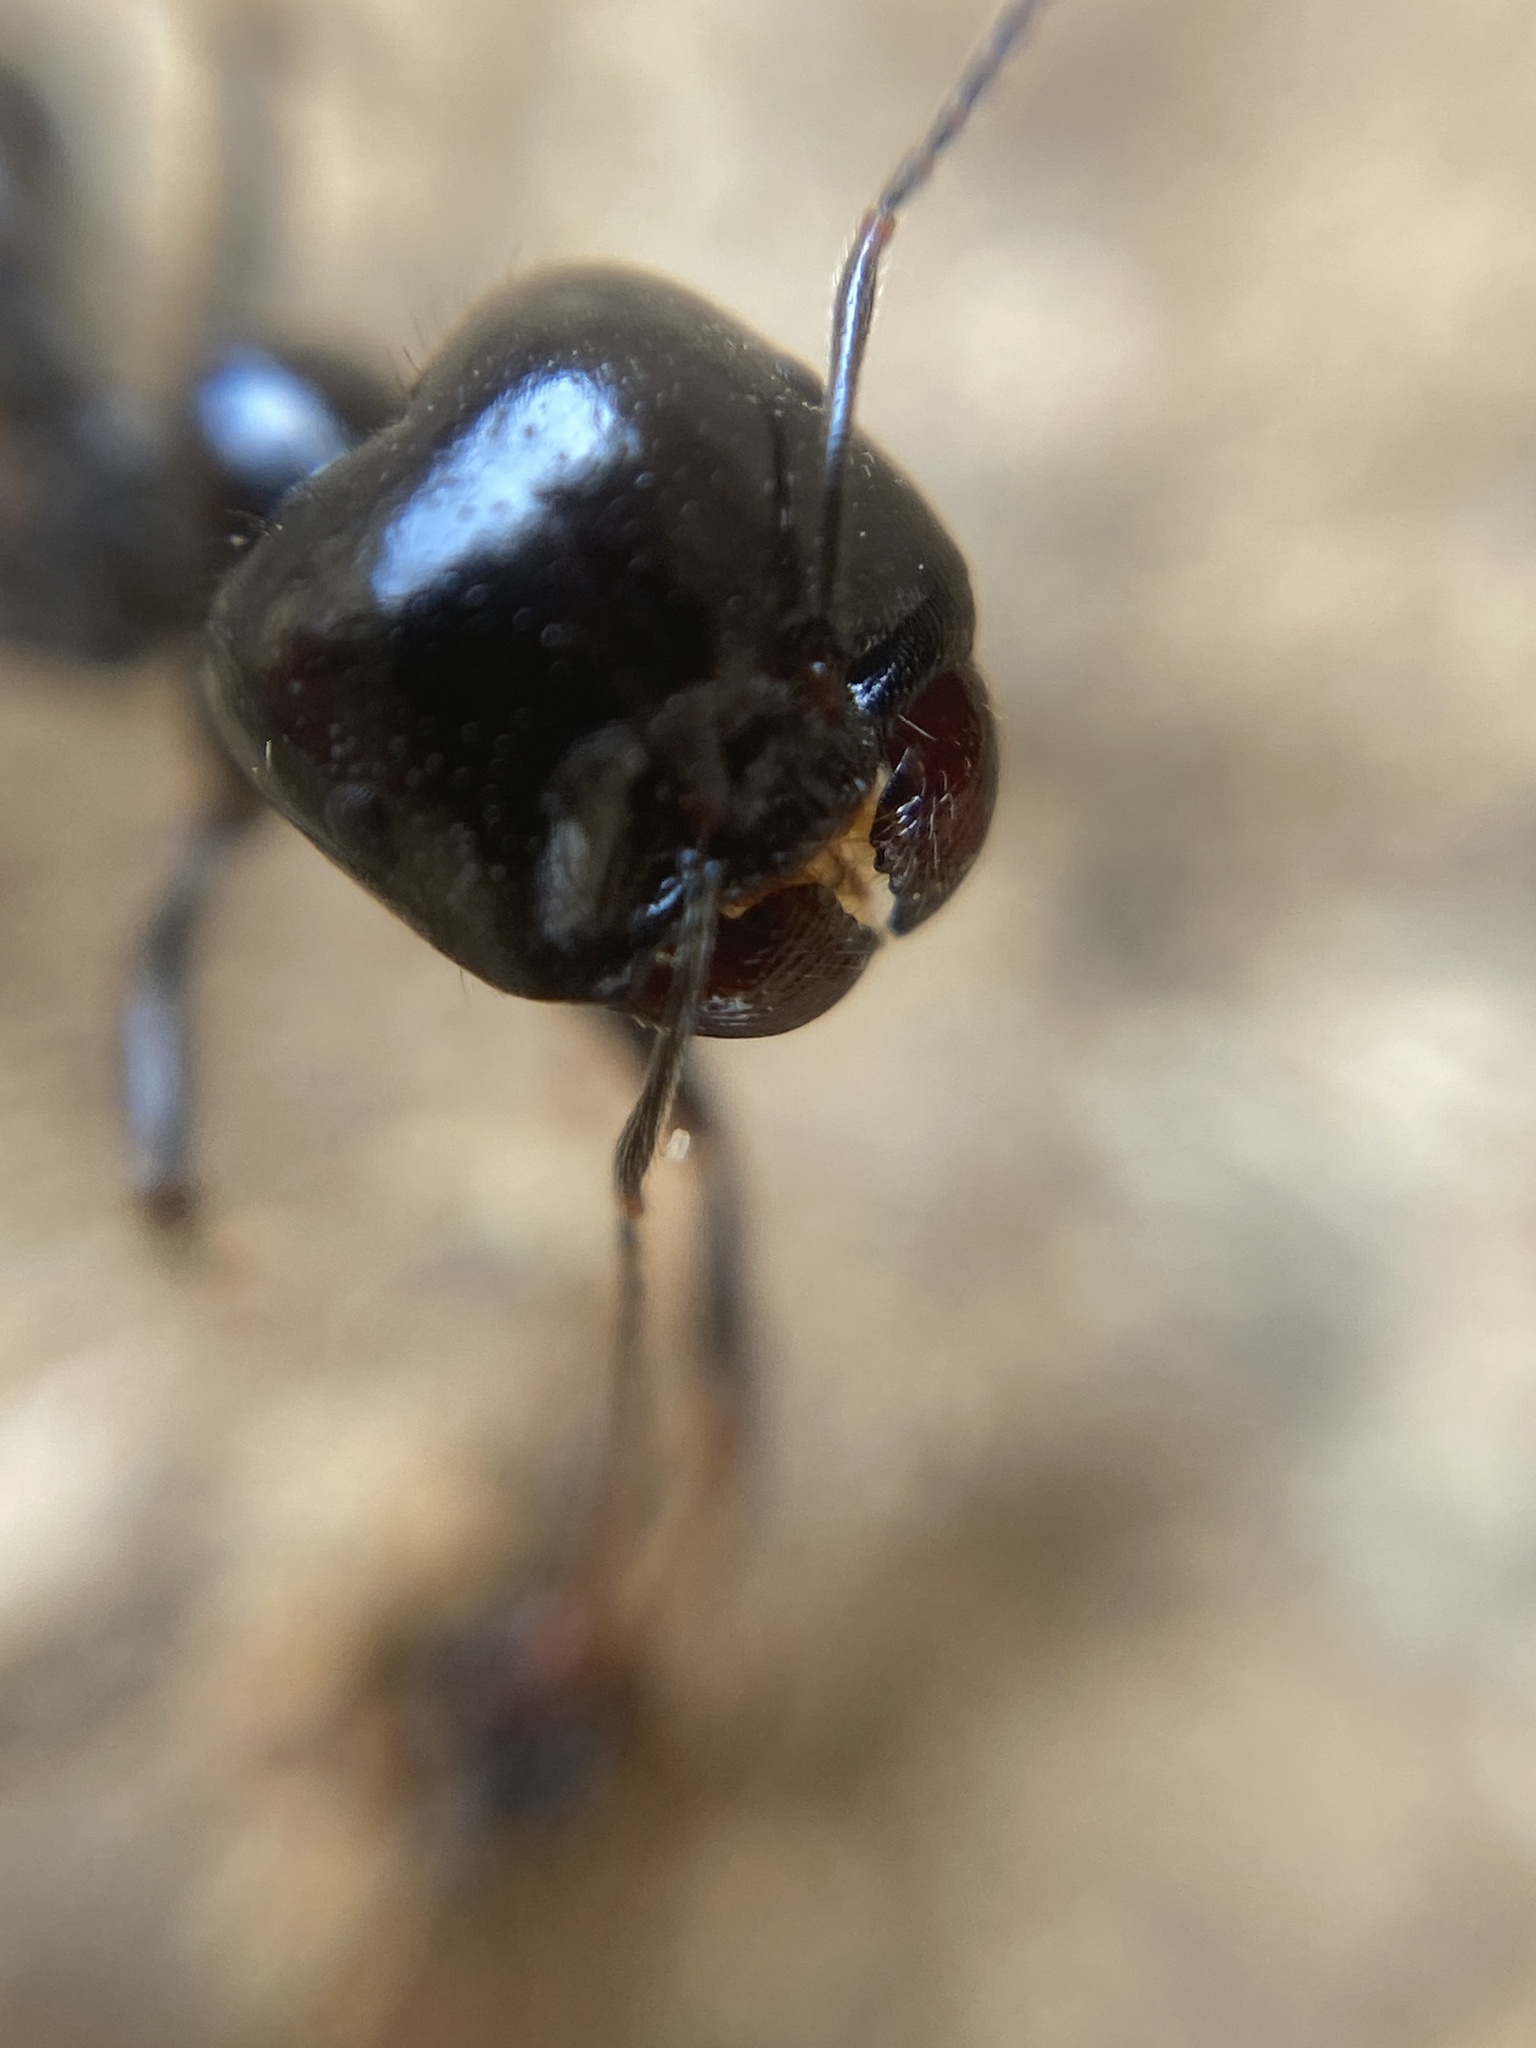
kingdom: Animalia
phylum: Arthropoda
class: Insecta
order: Hymenoptera
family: Formicidae
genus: Messor
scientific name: Messor capitatus
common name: European seed harvesting ant
